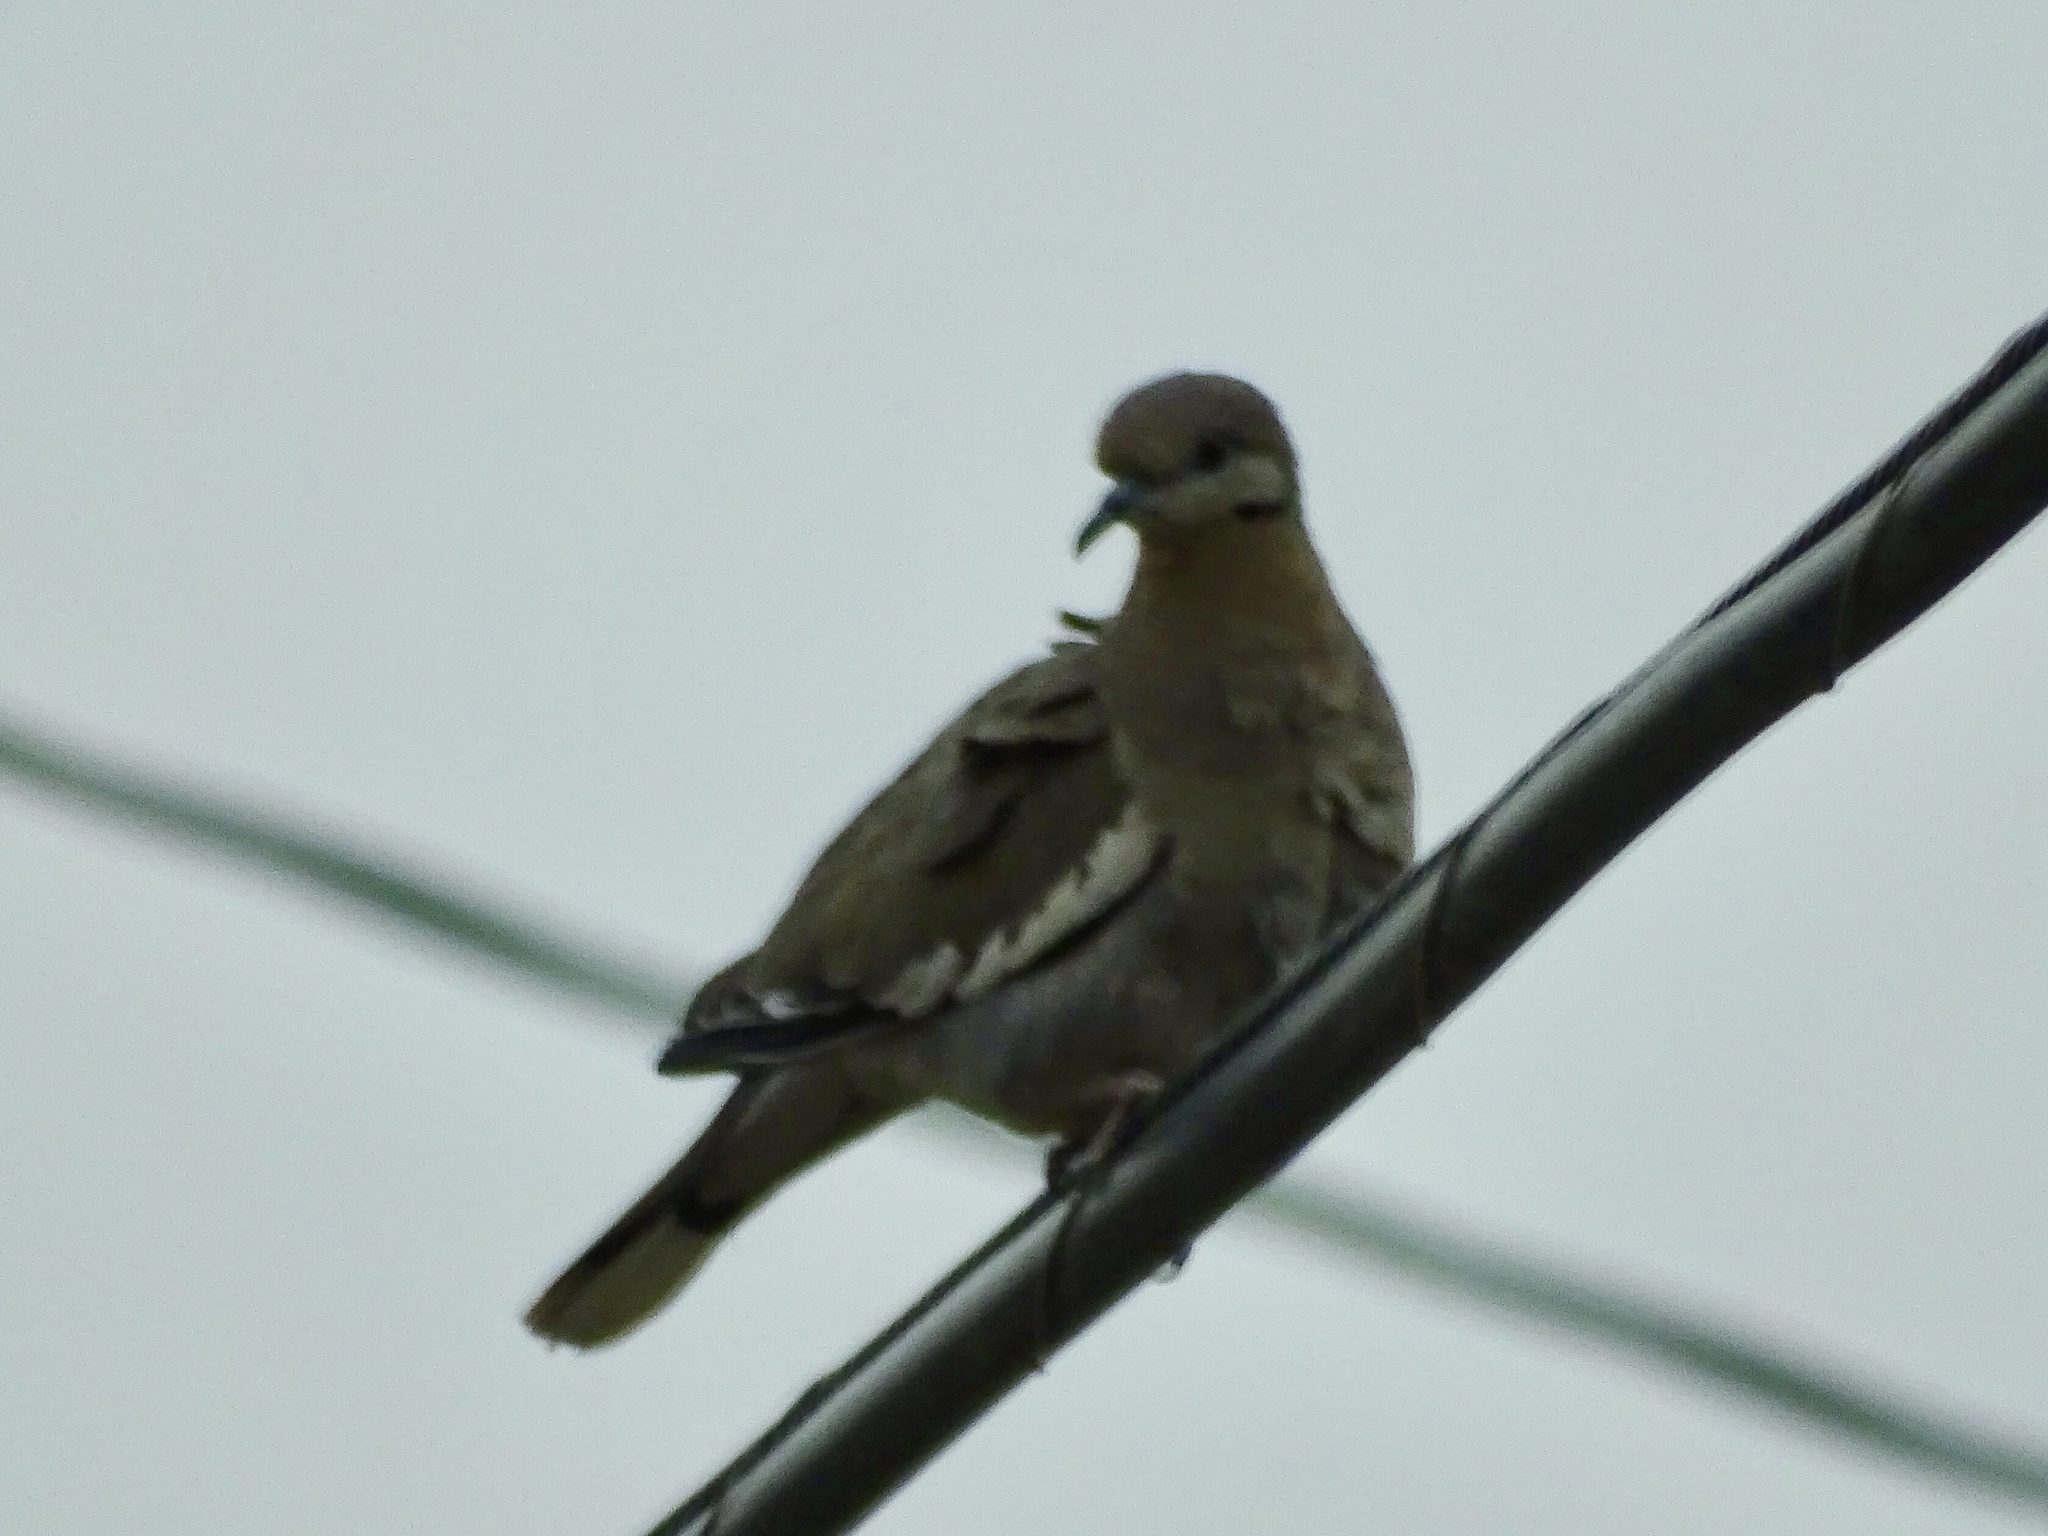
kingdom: Animalia
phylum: Chordata
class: Aves
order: Columbiformes
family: Columbidae
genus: Zenaida
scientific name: Zenaida asiatica
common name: White-winged dove
